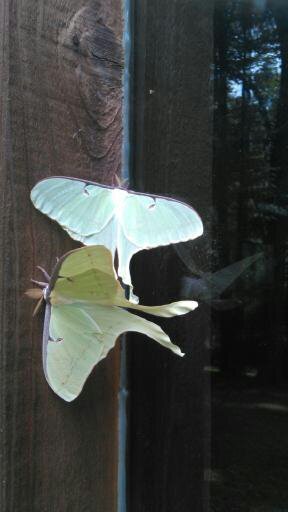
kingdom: Animalia
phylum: Arthropoda
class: Insecta
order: Lepidoptera
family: Saturniidae
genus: Actias
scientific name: Actias luna
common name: Luna moth
